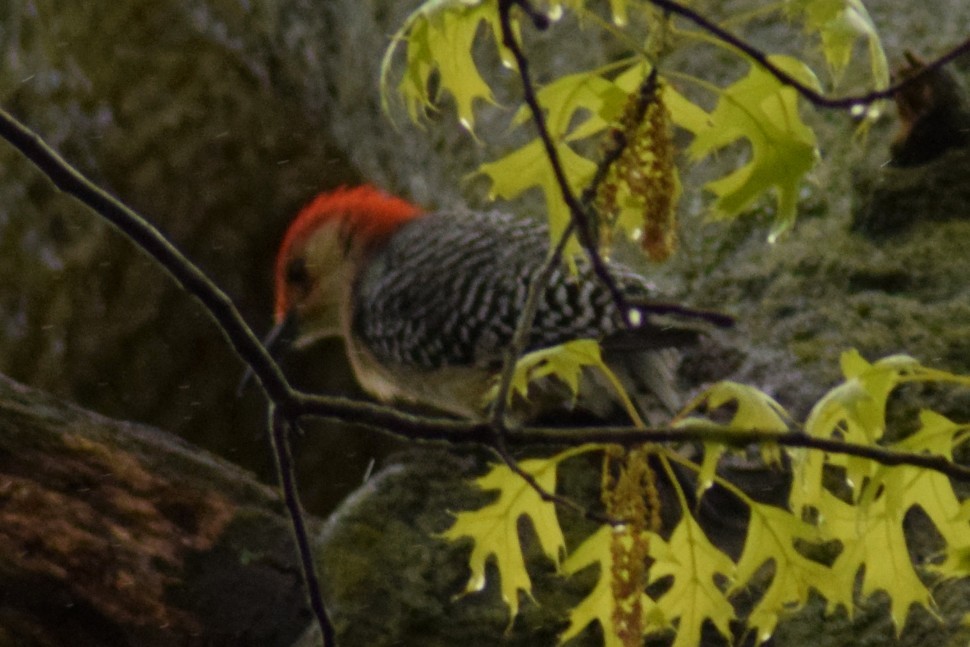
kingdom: Animalia
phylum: Chordata
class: Aves
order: Piciformes
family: Picidae
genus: Melanerpes
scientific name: Melanerpes carolinus
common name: Red-bellied woodpecker
